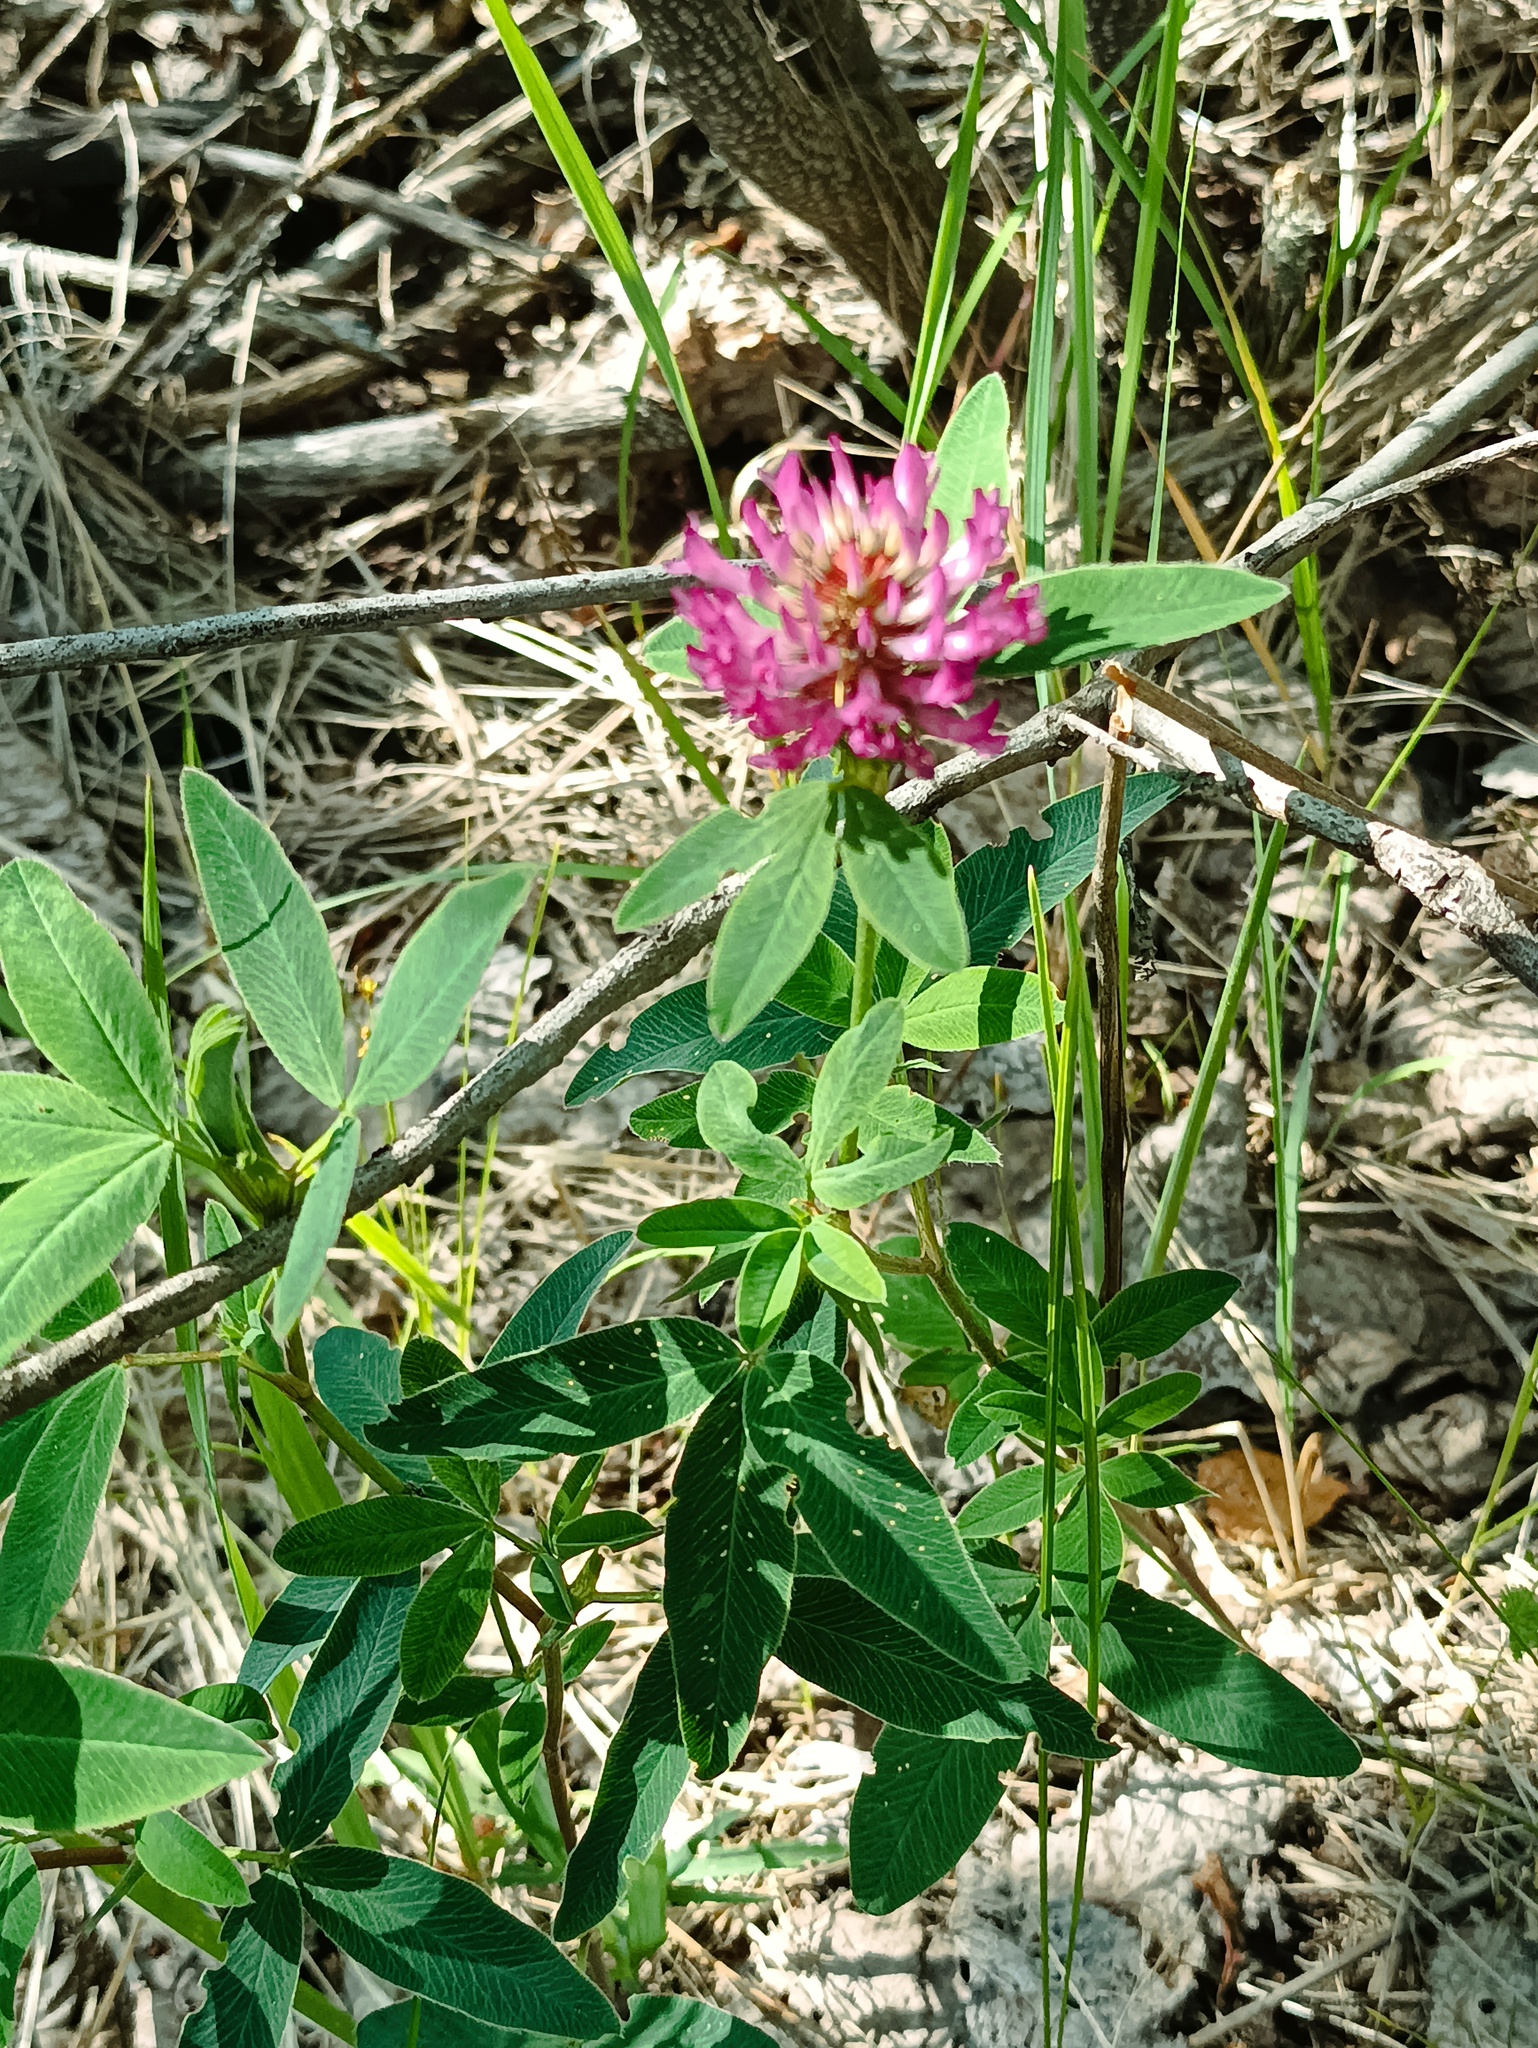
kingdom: Plantae
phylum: Tracheophyta
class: Magnoliopsida
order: Fabales
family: Fabaceae
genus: Trifolium
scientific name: Trifolium medium
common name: Zigzag clover
